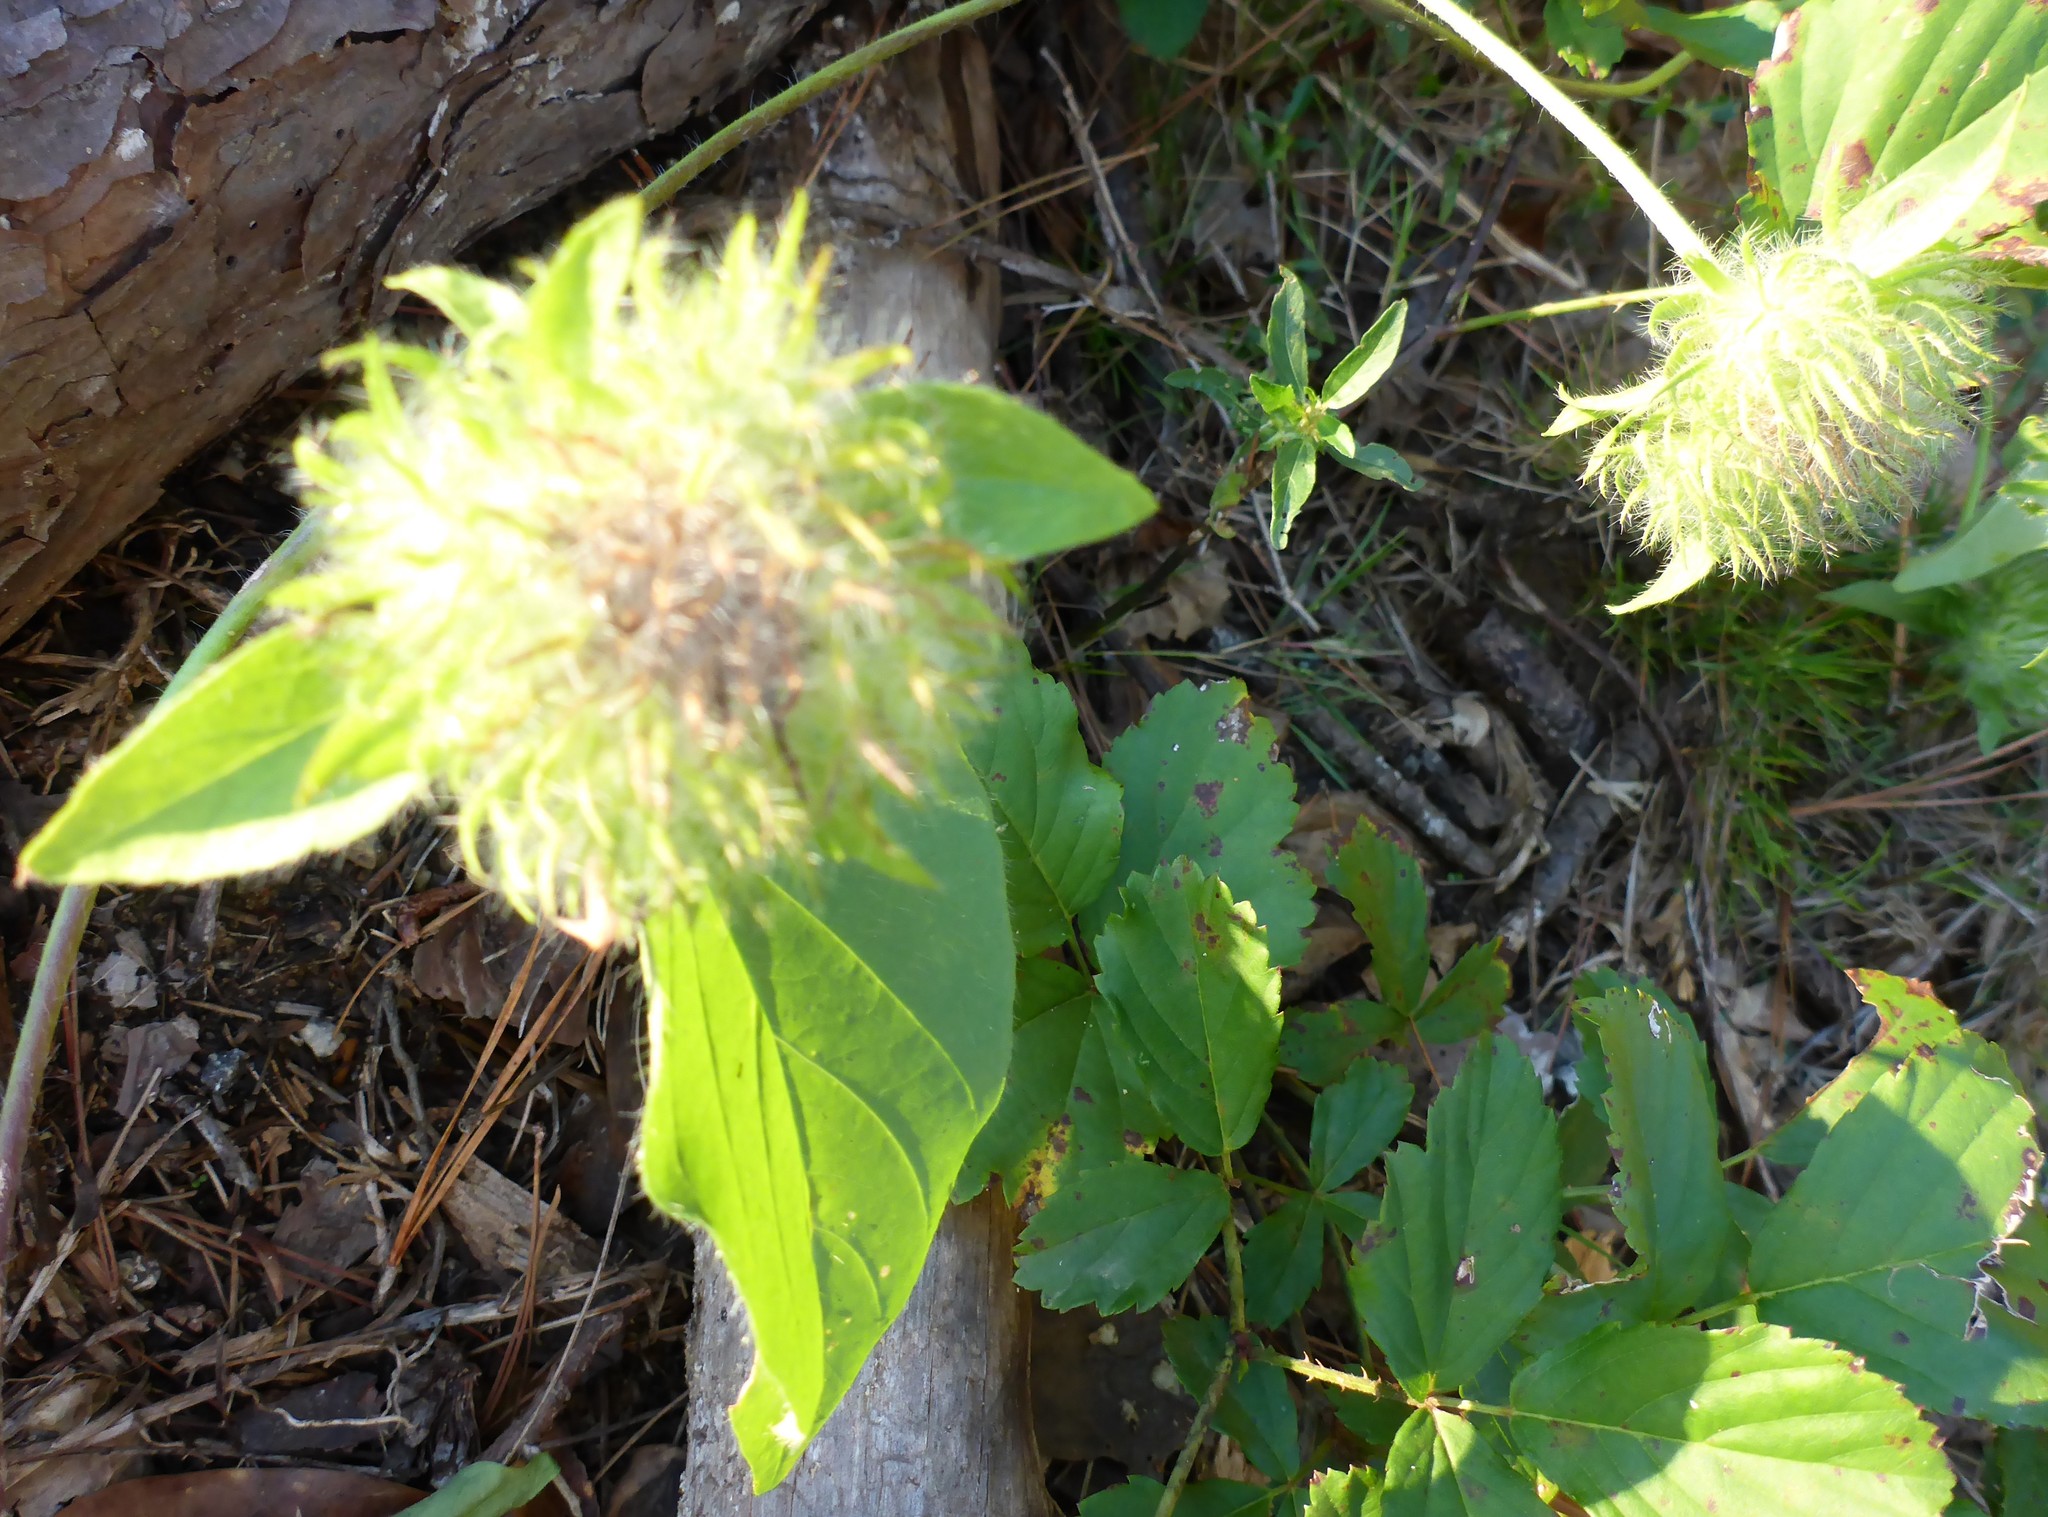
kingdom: Plantae
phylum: Tracheophyta
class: Magnoliopsida
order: Solanales
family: Convolvulaceae
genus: Jacquemontia
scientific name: Jacquemontia tamnifolia
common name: Hairy clustervine
